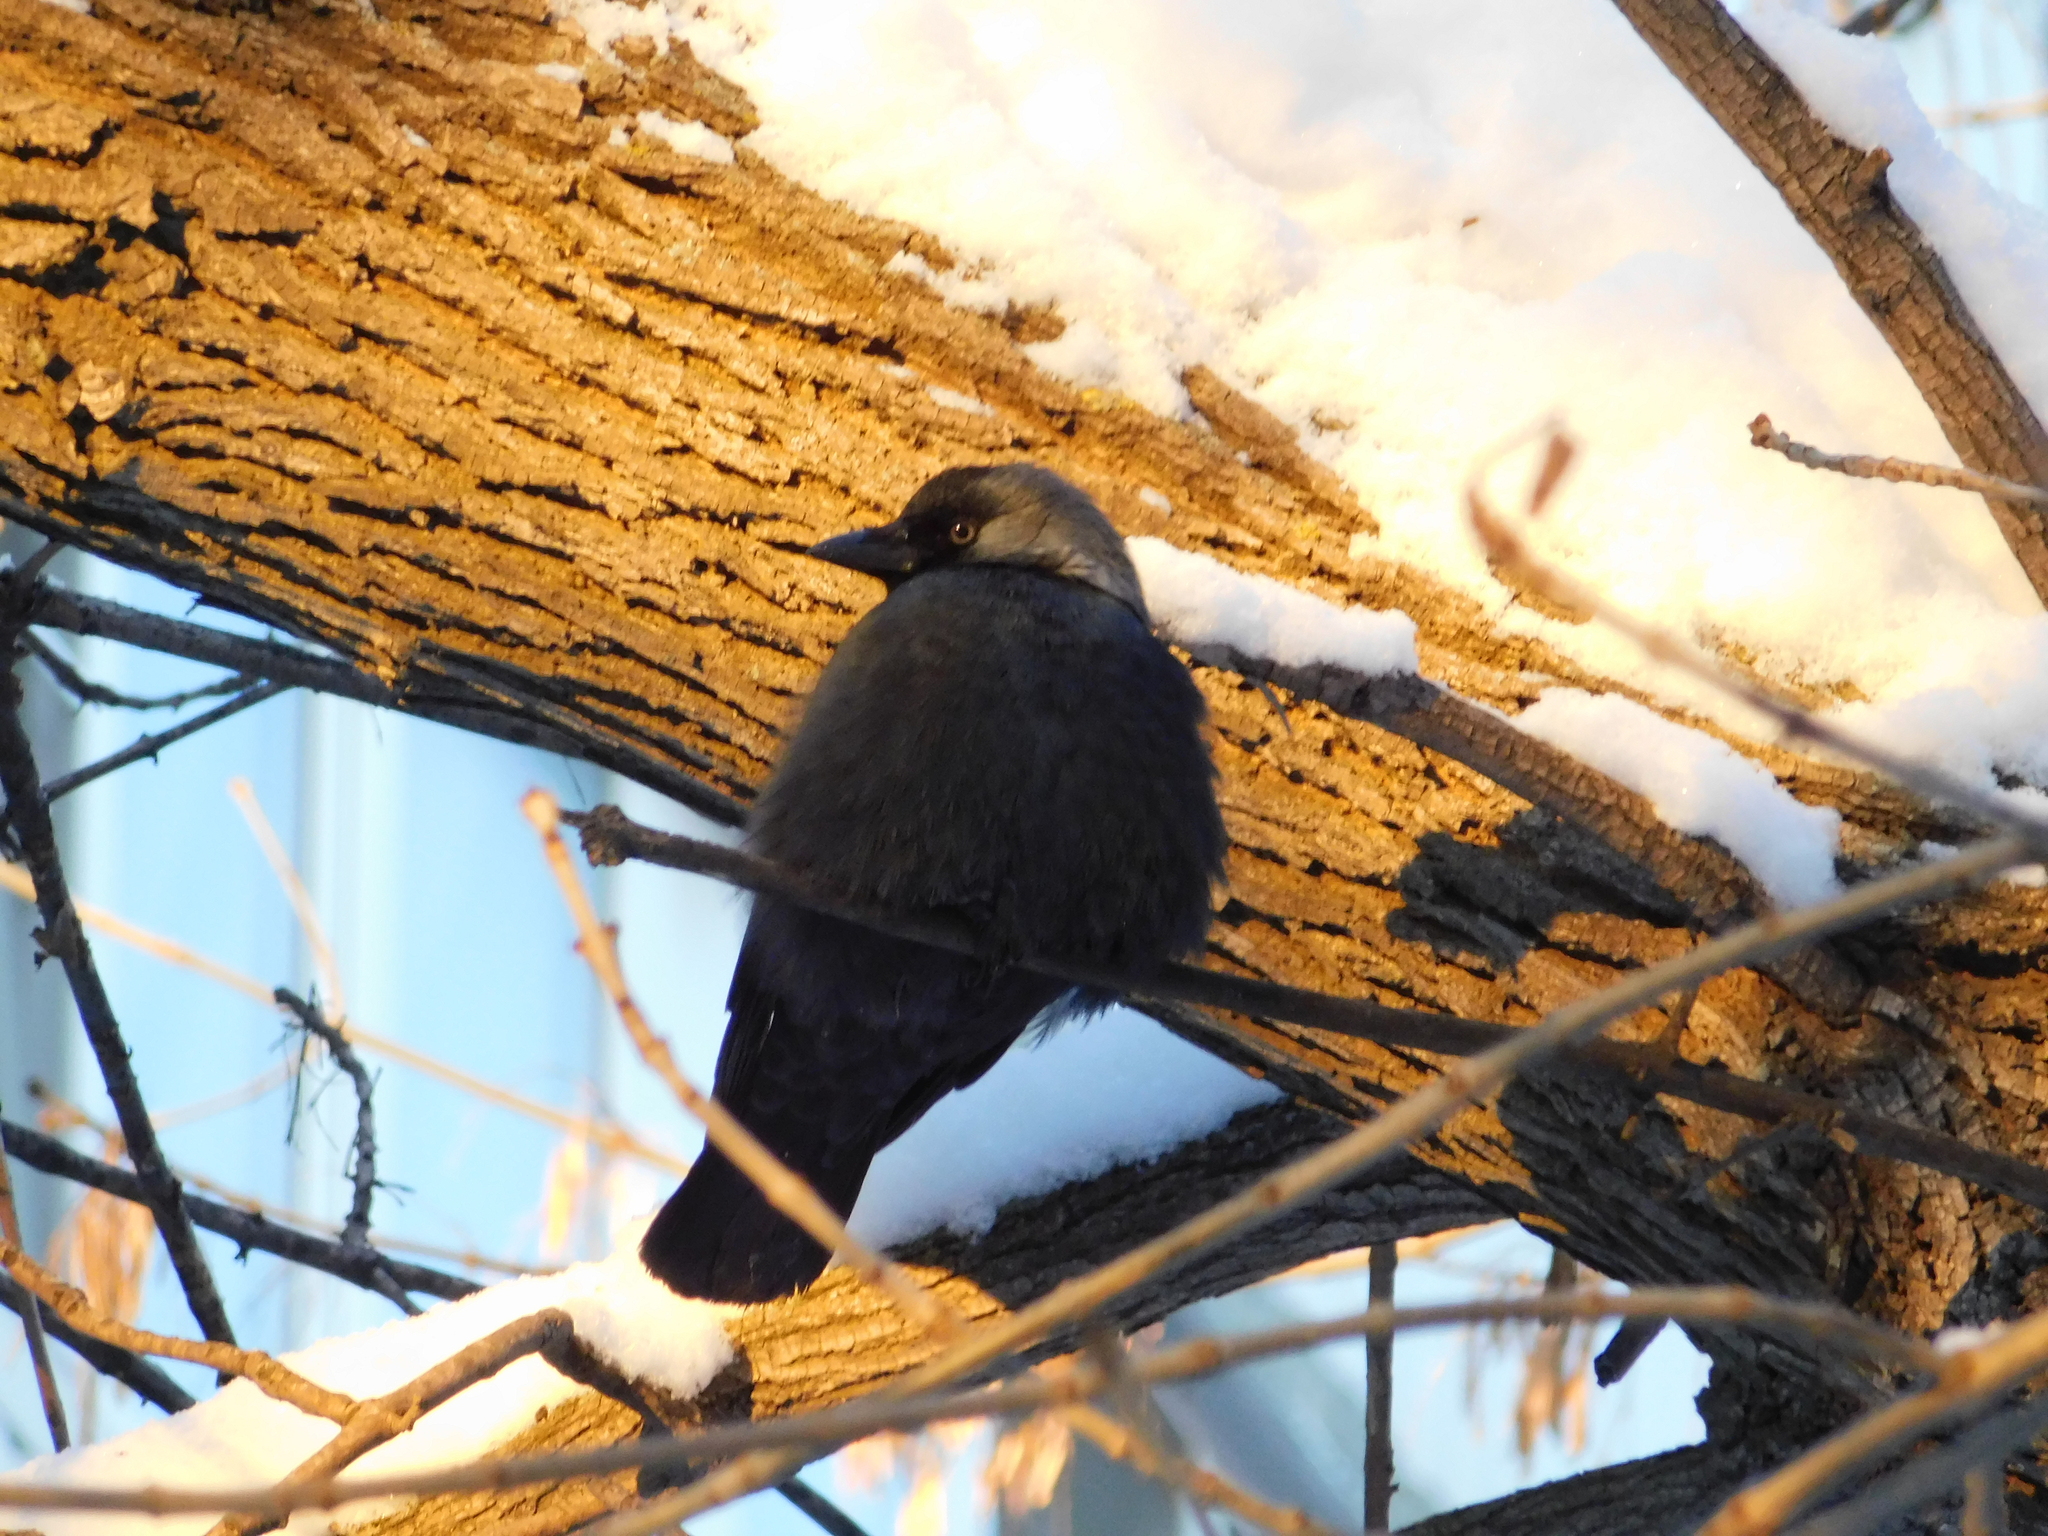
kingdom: Animalia
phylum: Chordata
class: Aves
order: Passeriformes
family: Corvidae
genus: Coloeus
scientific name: Coloeus monedula
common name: Western jackdaw
